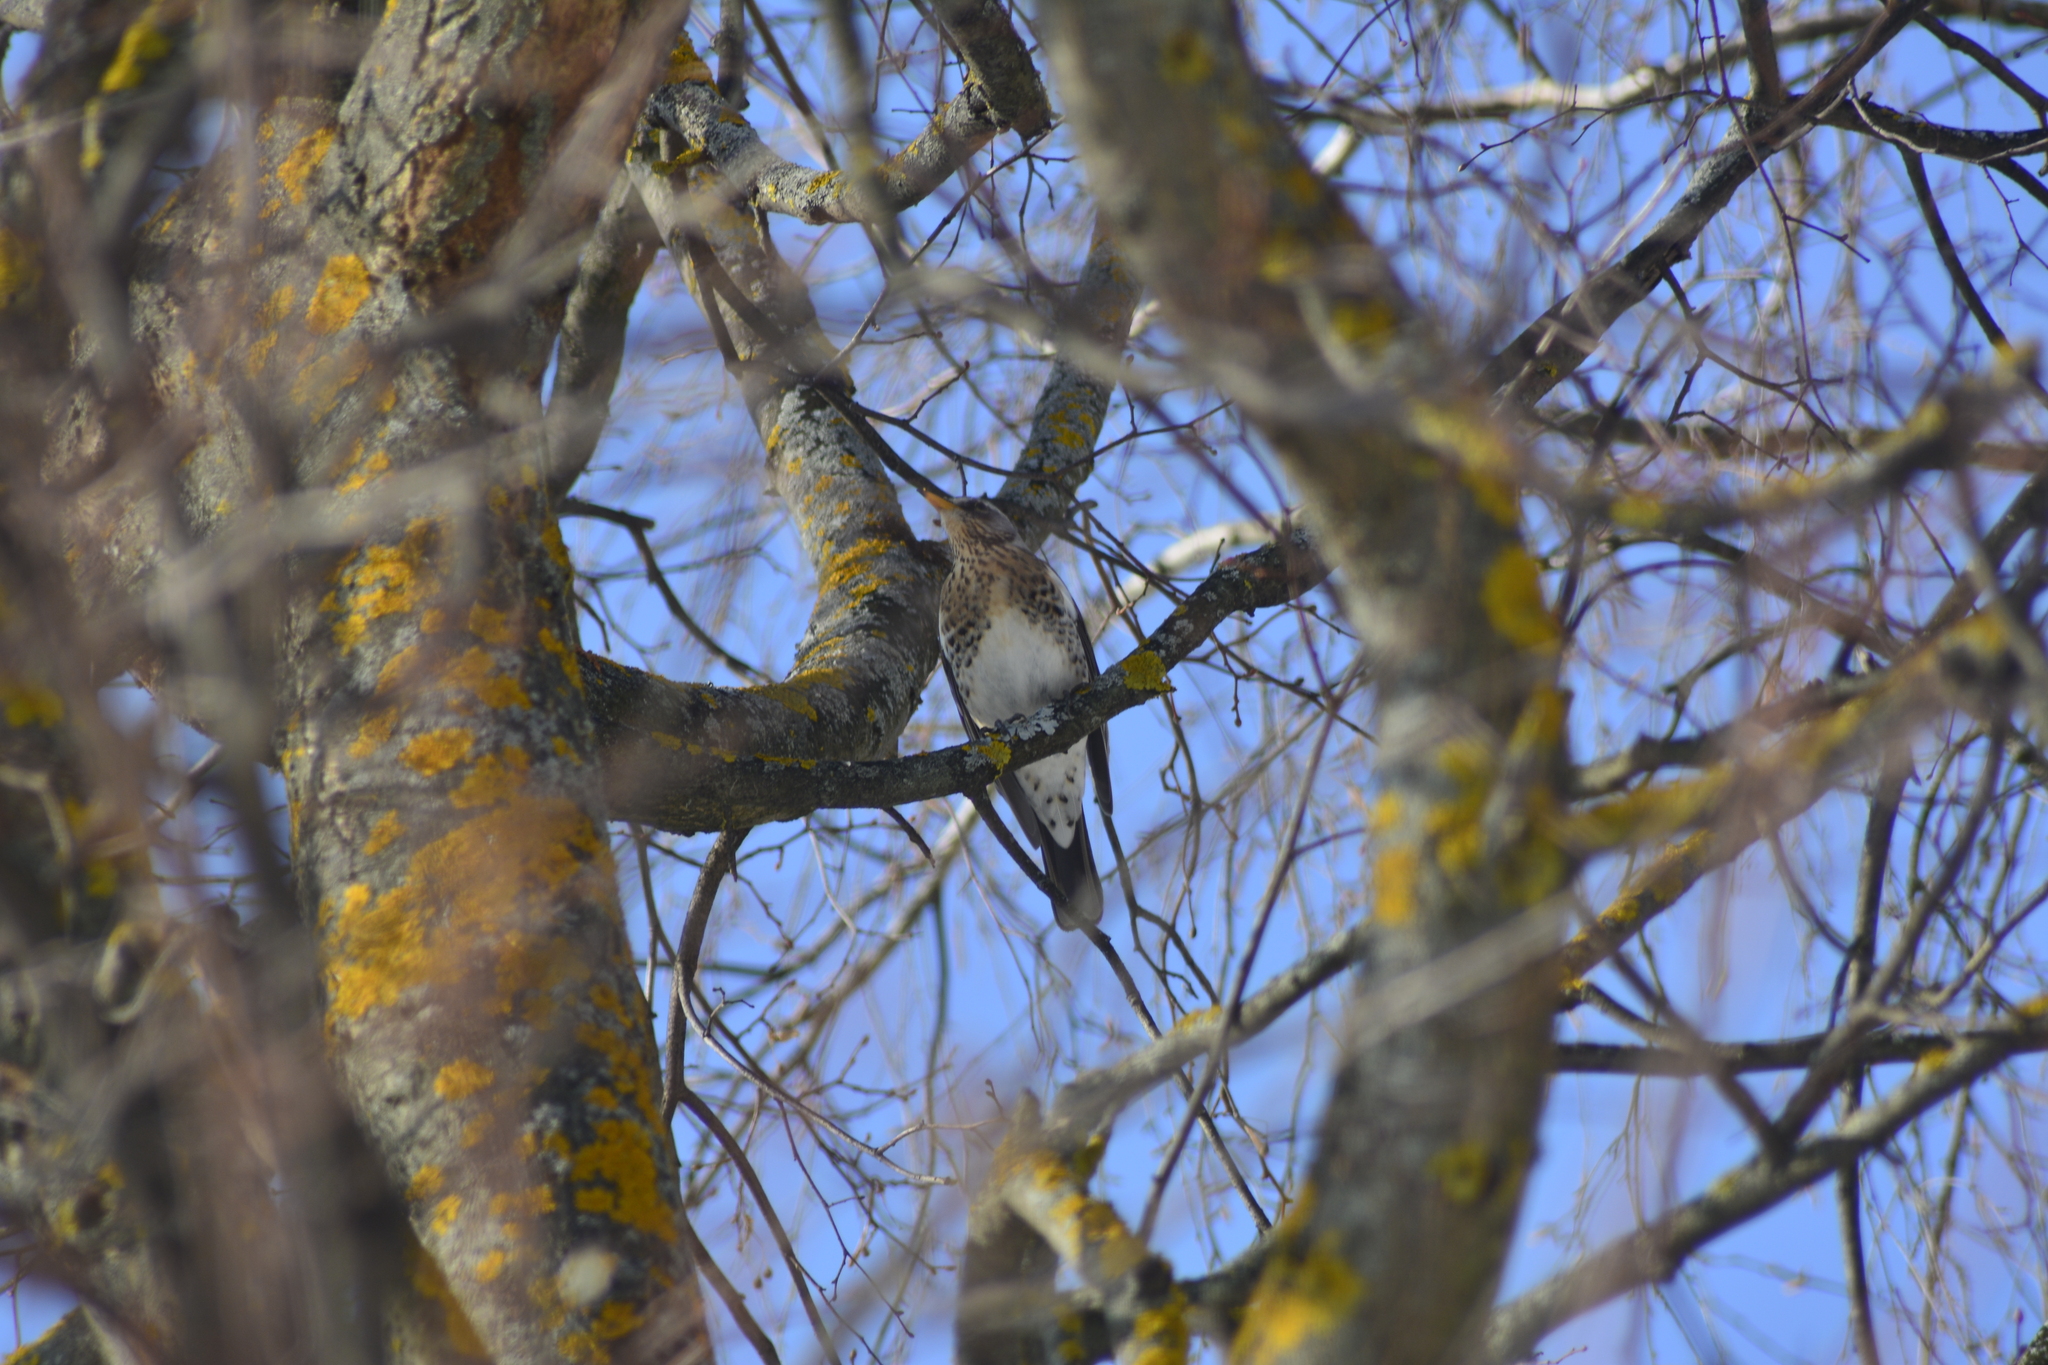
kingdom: Animalia
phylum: Chordata
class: Aves
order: Passeriformes
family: Turdidae
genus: Turdus
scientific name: Turdus pilaris
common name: Fieldfare
